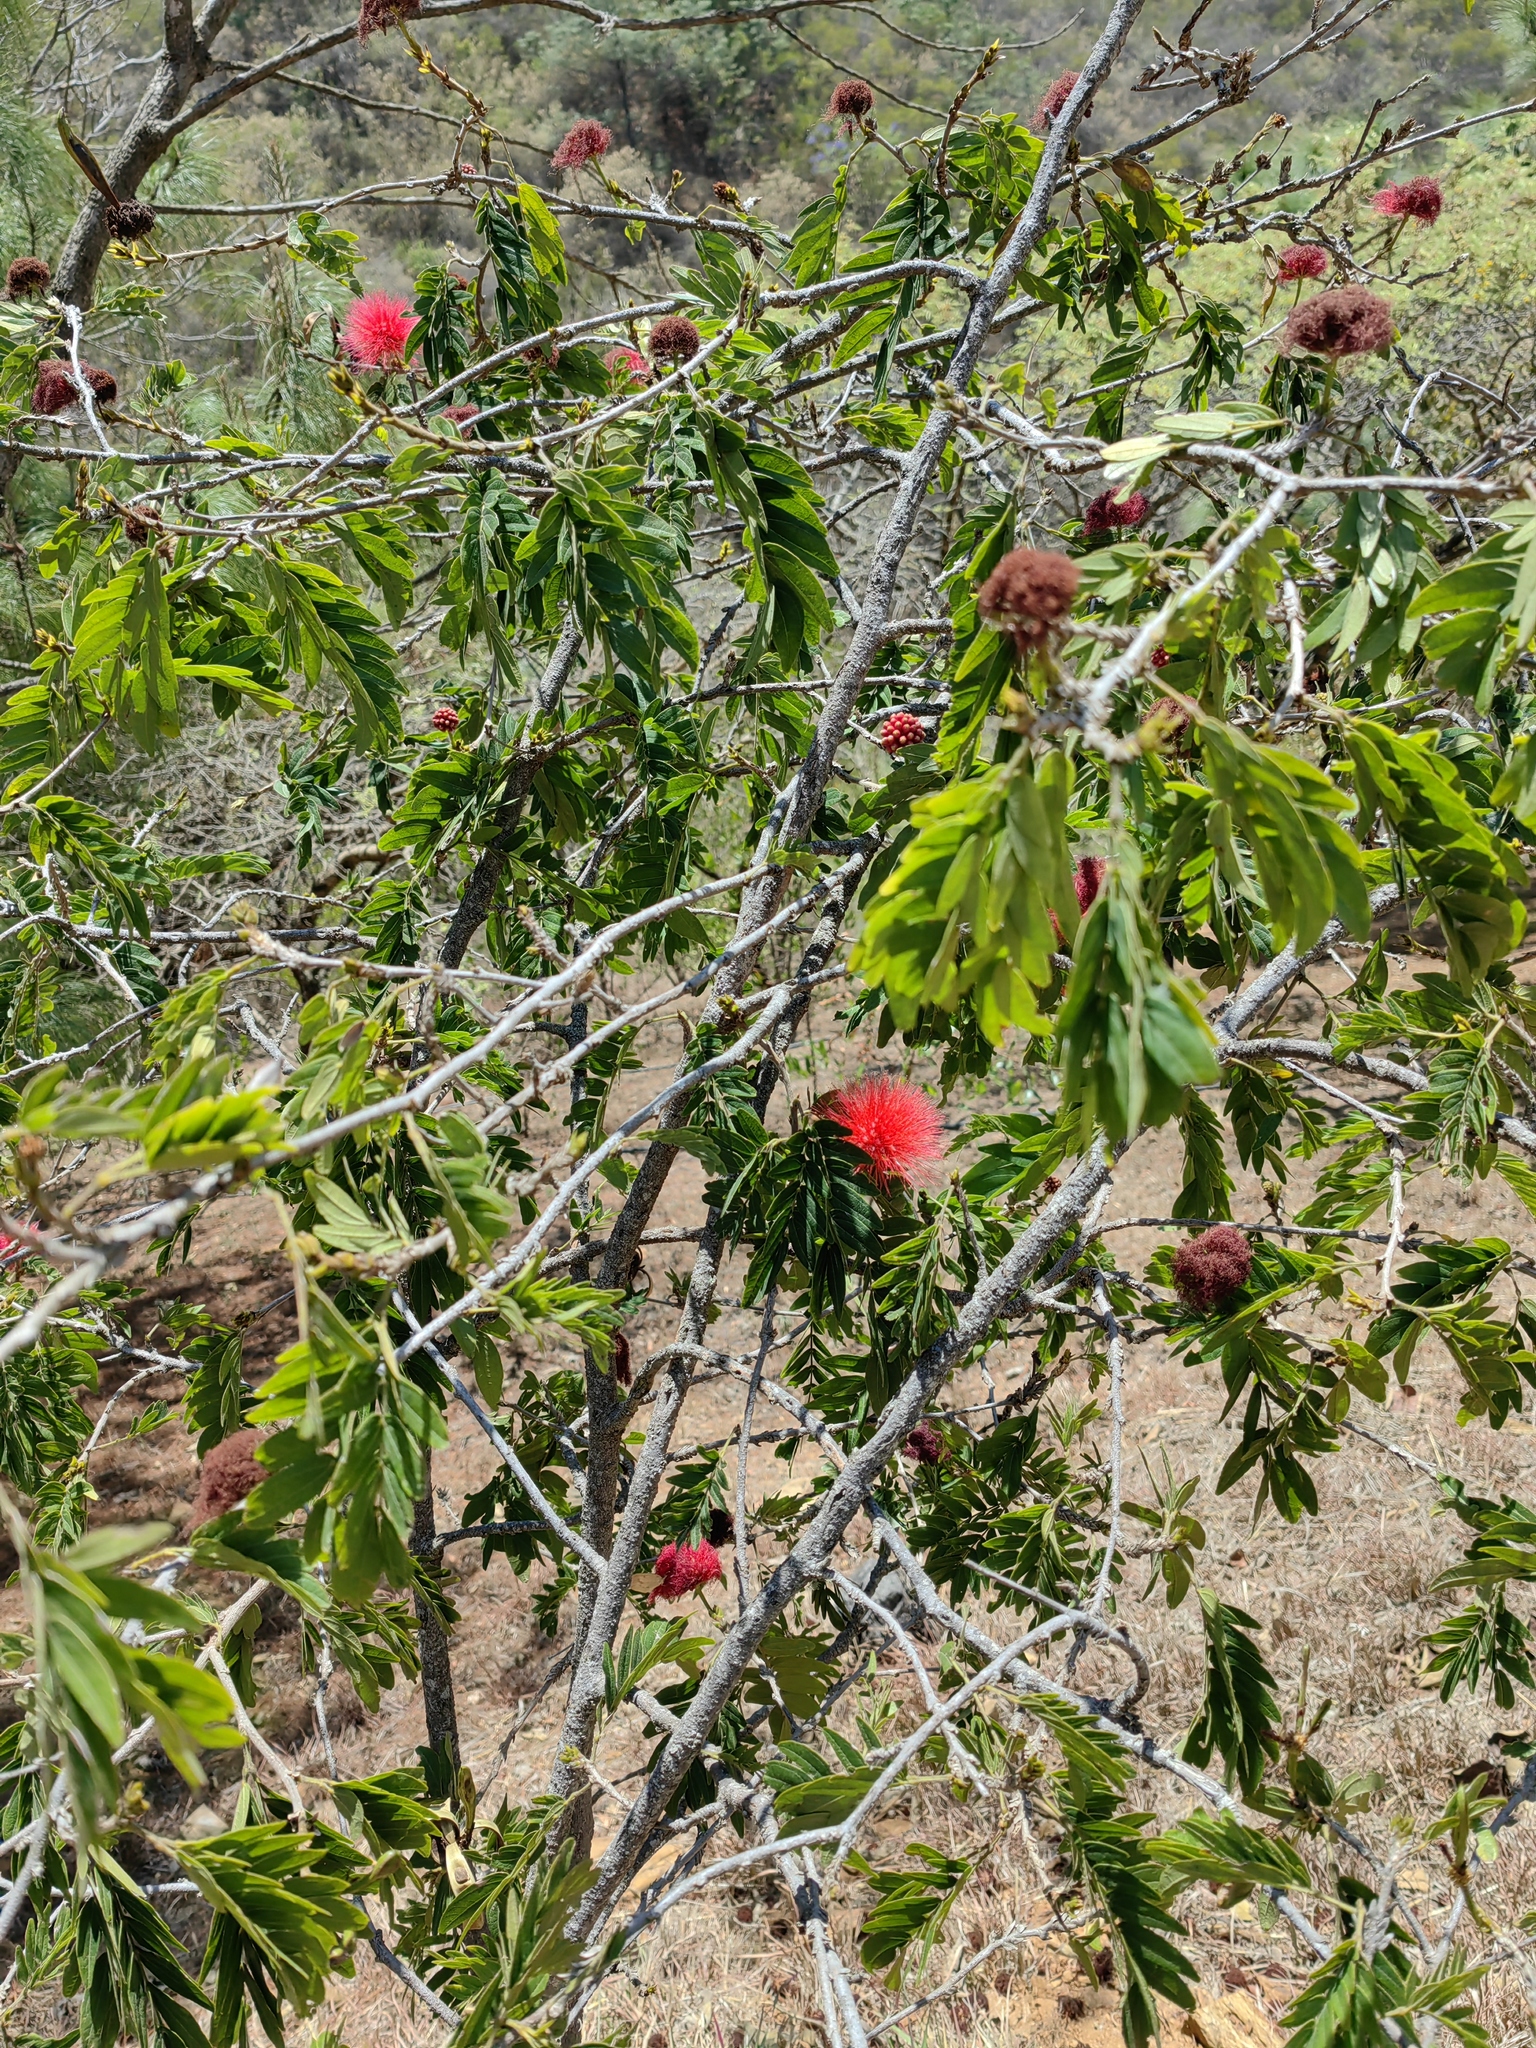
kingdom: Plantae
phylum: Tracheophyta
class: Magnoliopsida
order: Fabales
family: Fabaceae
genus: Calliandra
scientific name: Calliandra haematocephala
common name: Blood red tassel flower
